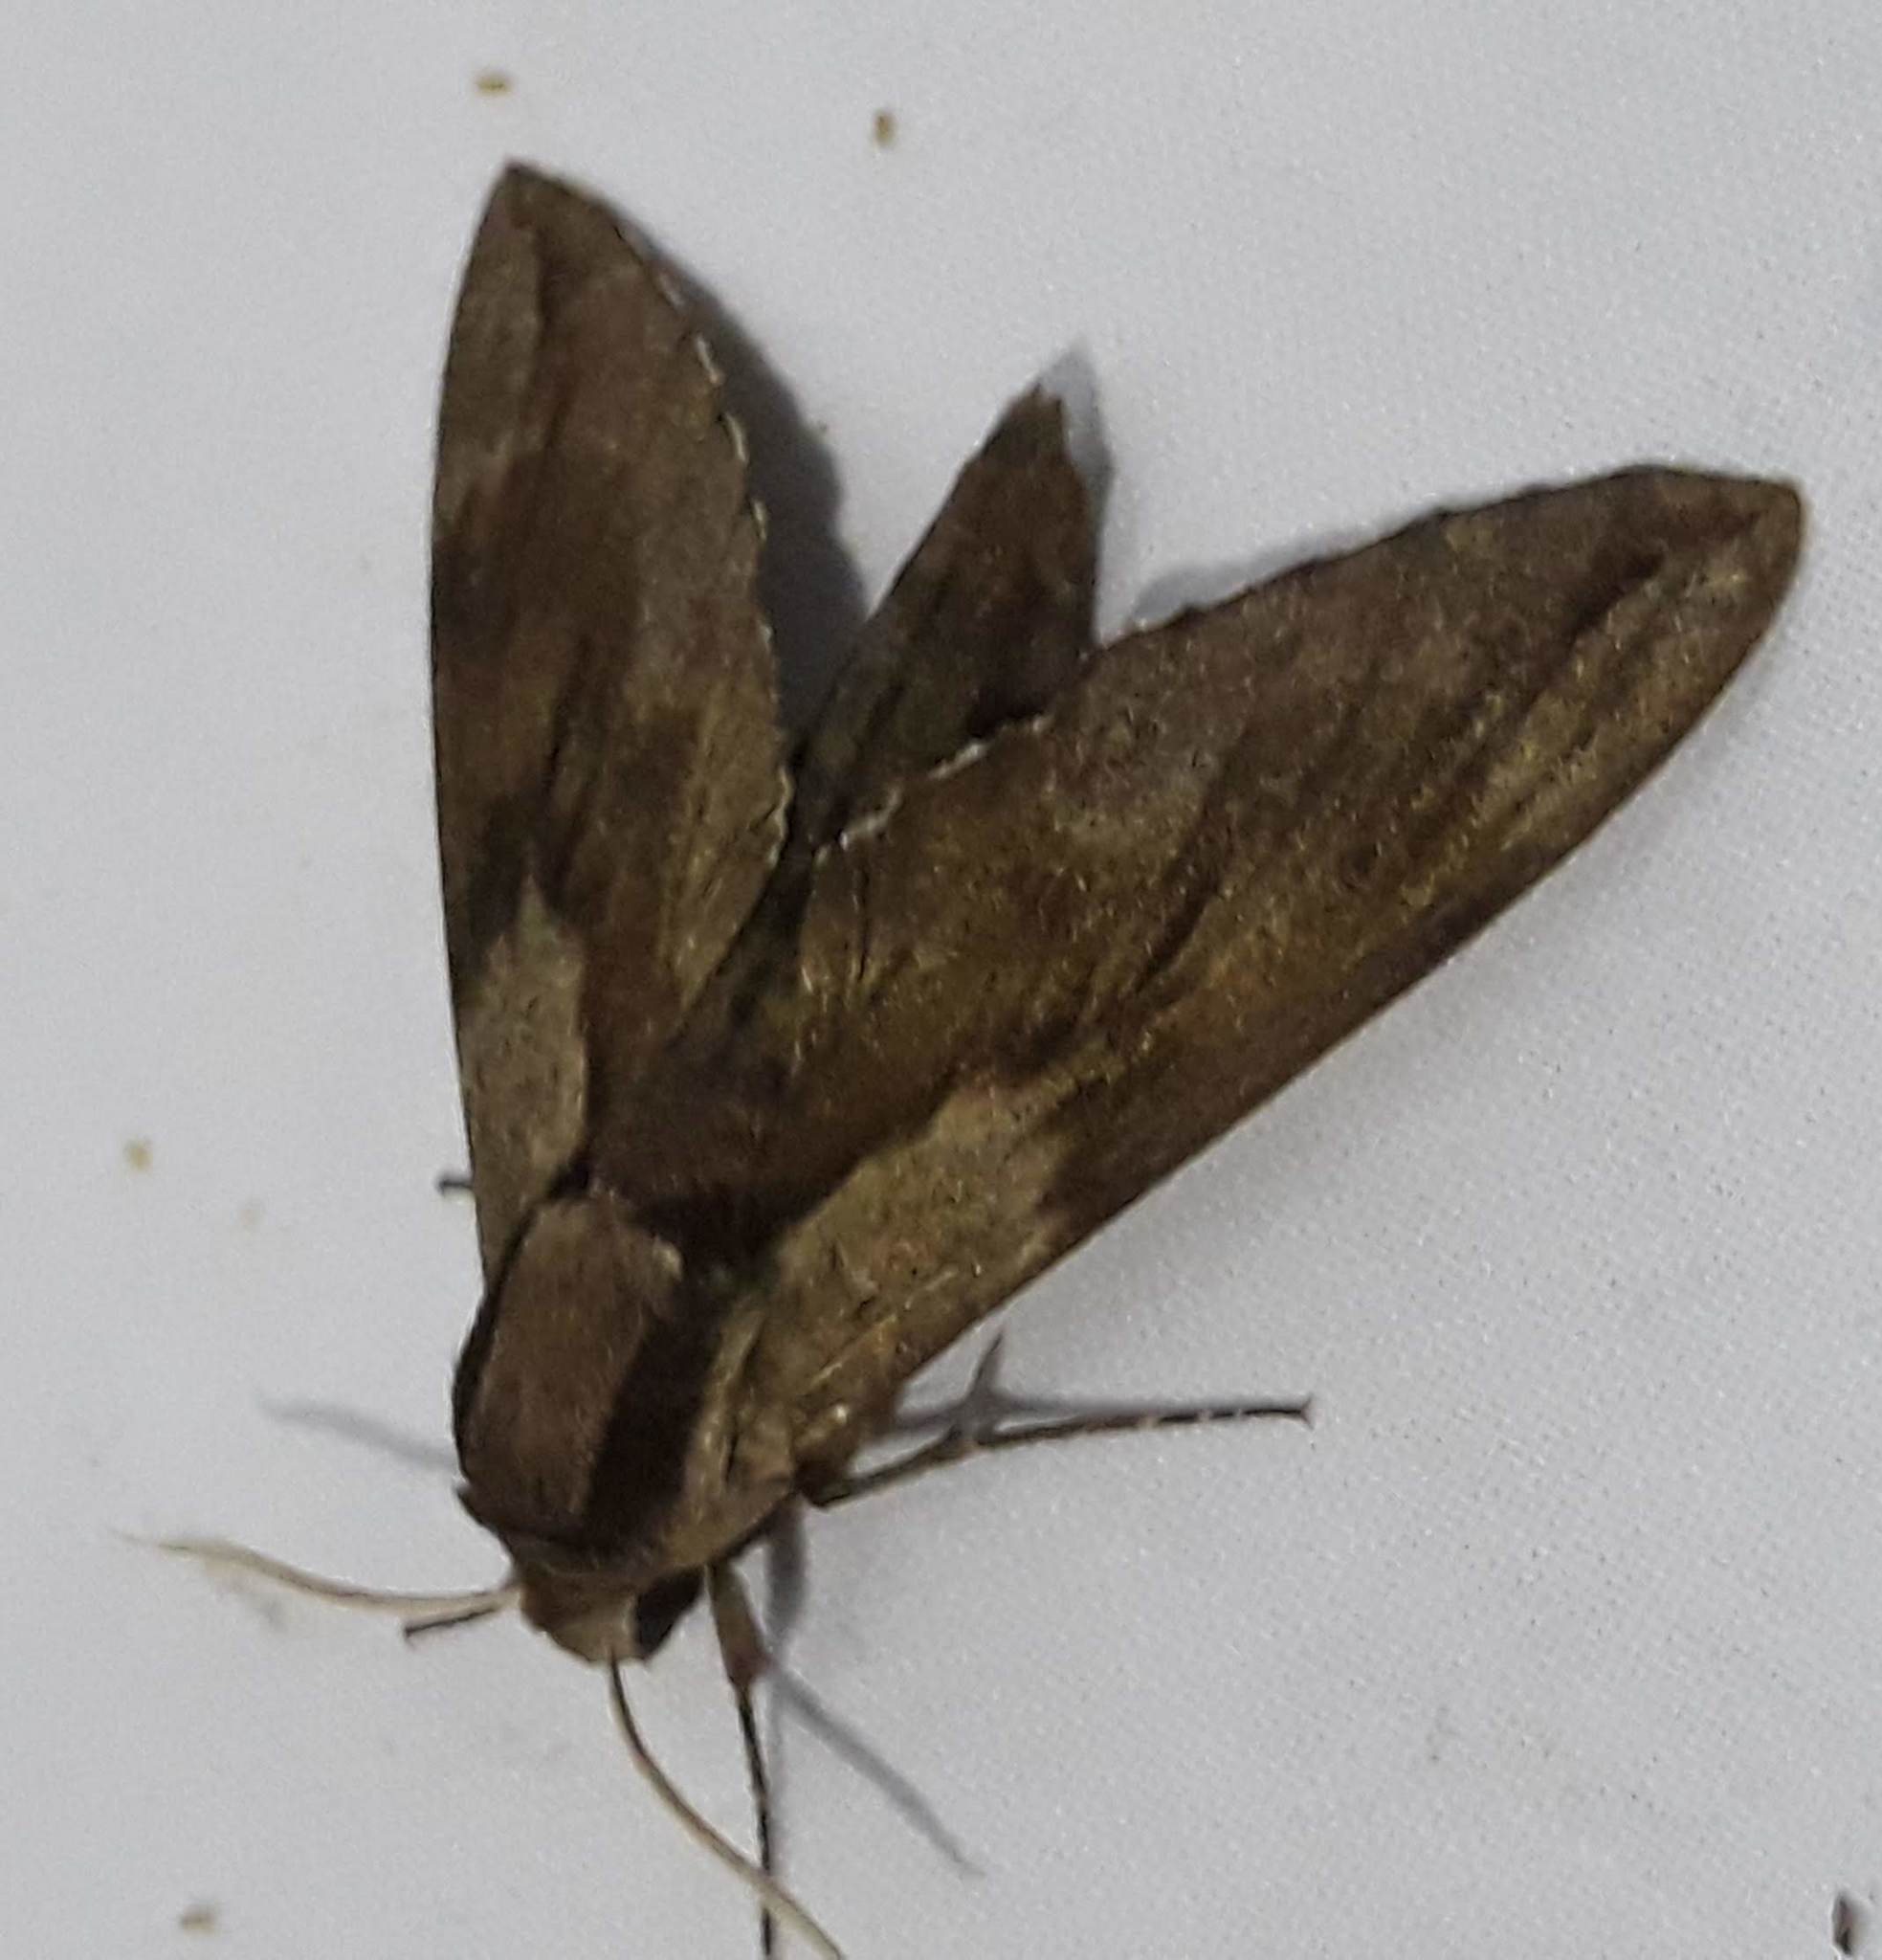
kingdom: Animalia
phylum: Arthropoda
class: Insecta
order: Lepidoptera
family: Sphingidae
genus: Sphinx
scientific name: Sphinx pinastri
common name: Pine hawk-moth
